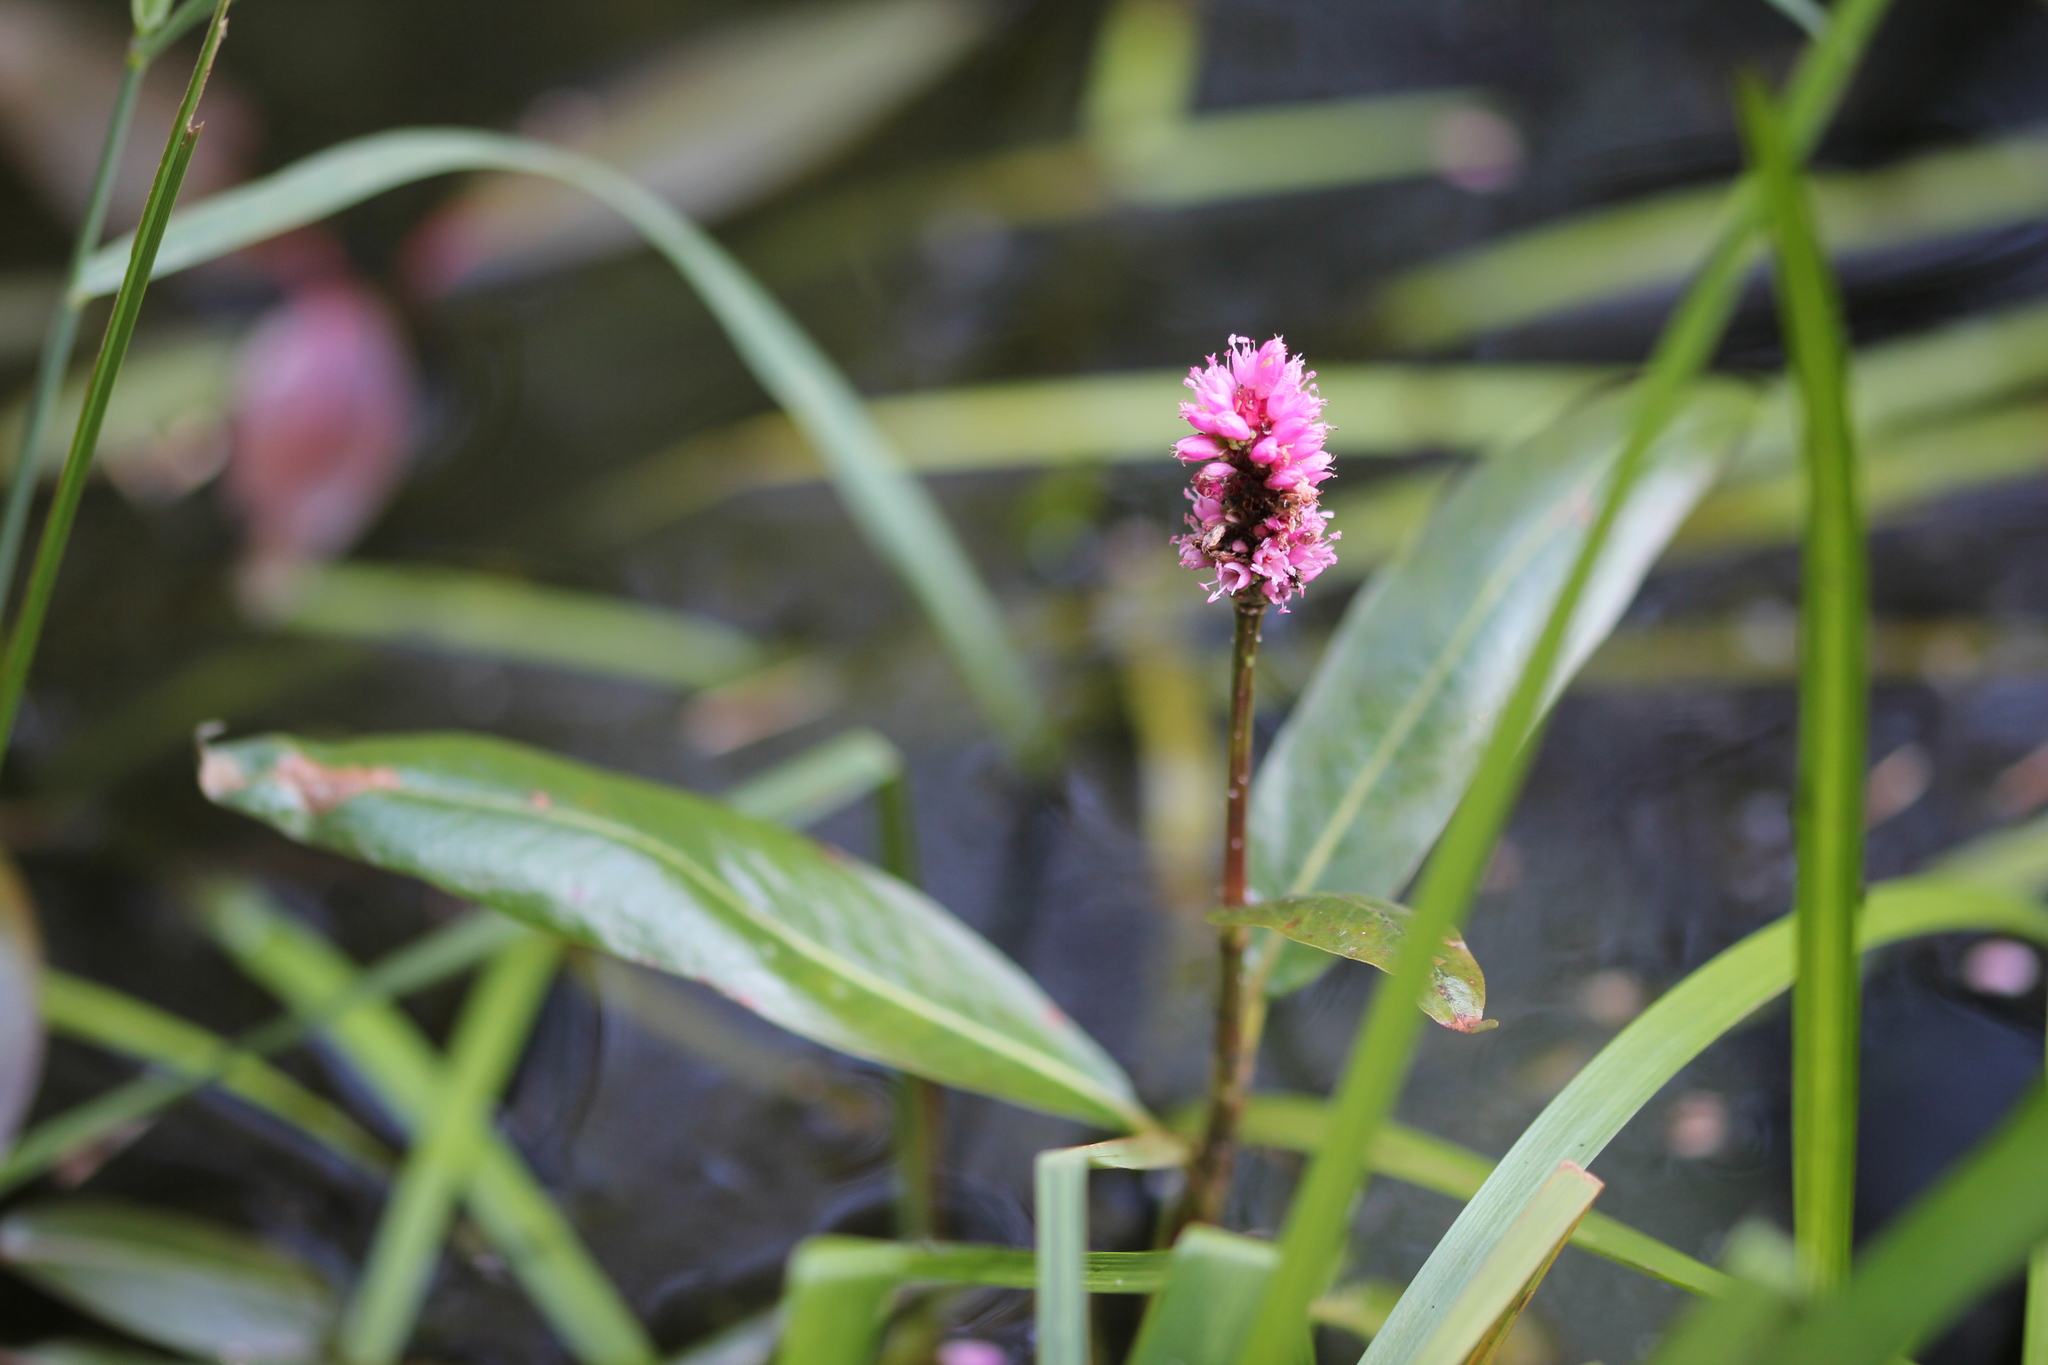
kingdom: Plantae
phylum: Tracheophyta
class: Magnoliopsida
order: Caryophyllales
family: Polygonaceae
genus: Persicaria
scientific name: Persicaria amphibia
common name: Amphibious bistort
